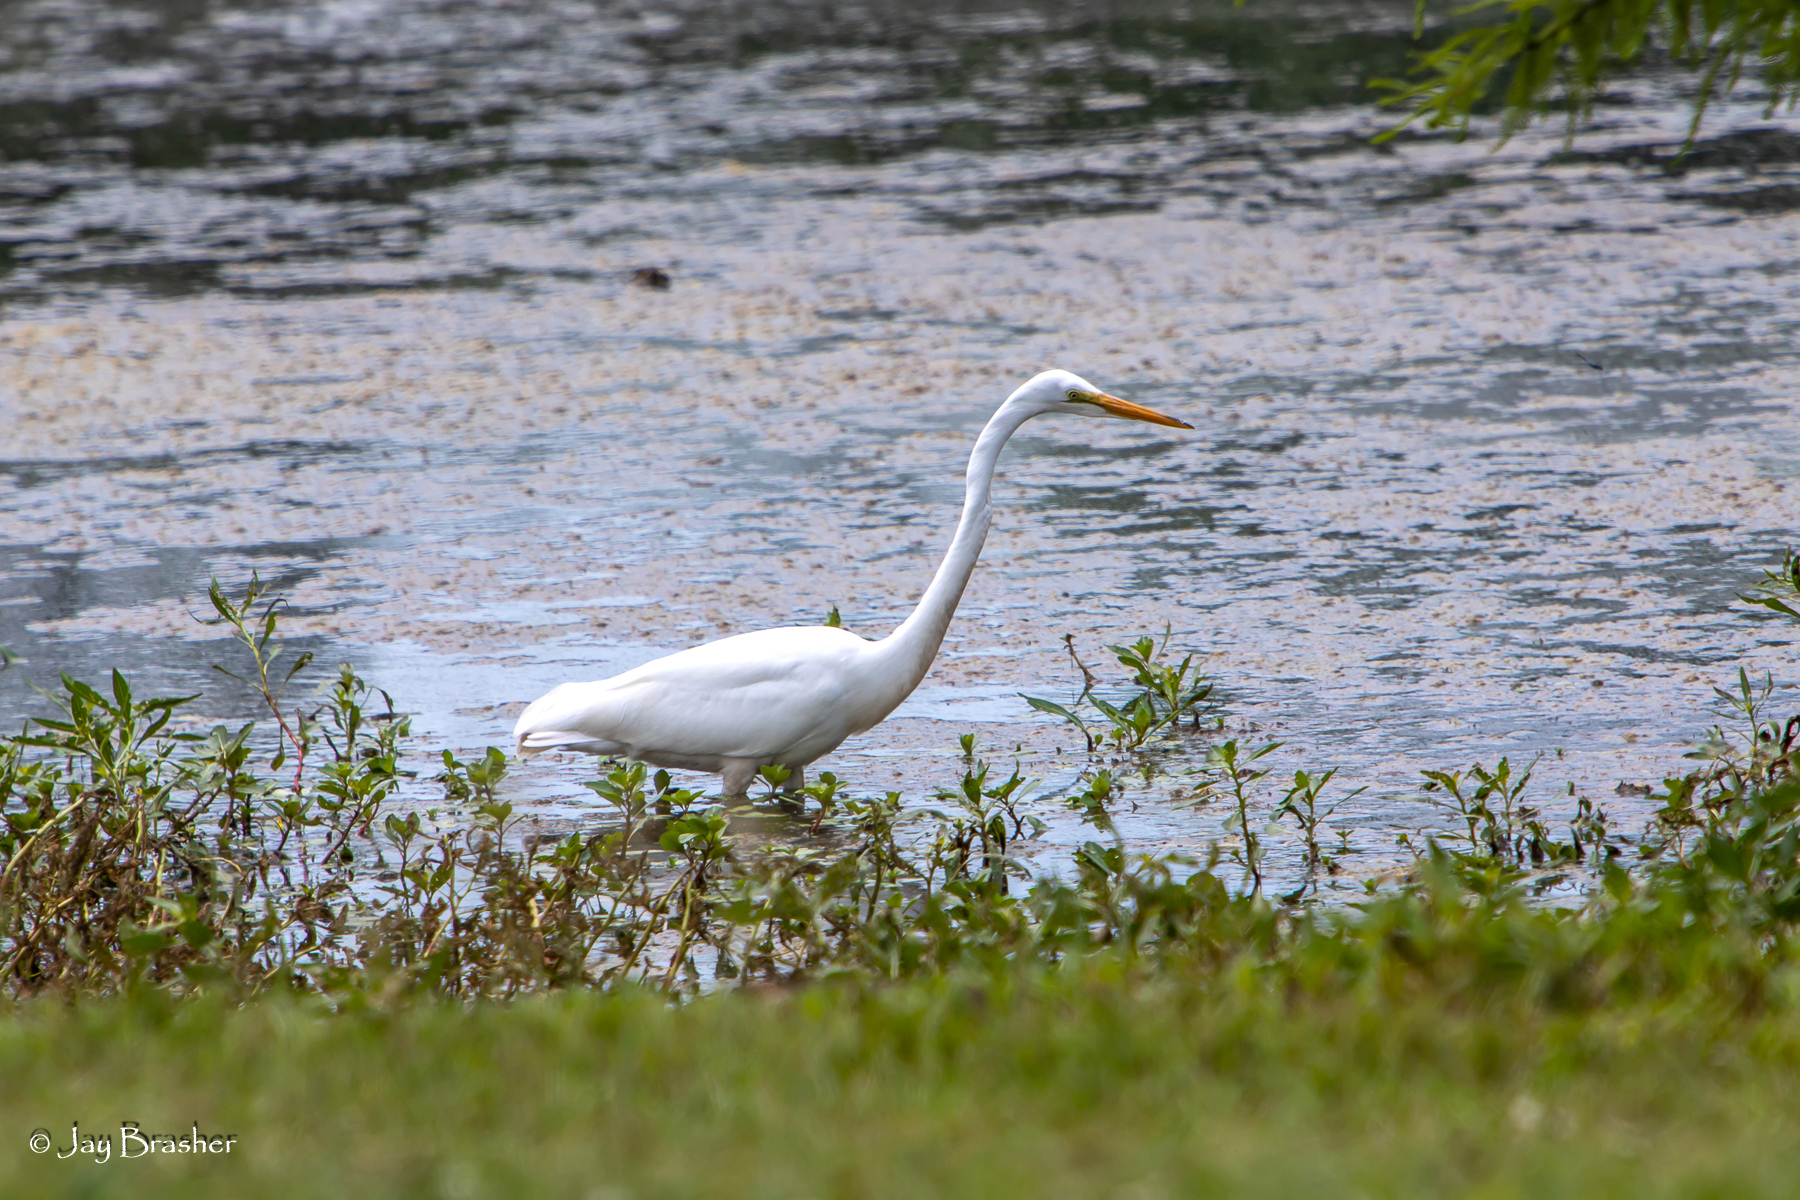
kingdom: Animalia
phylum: Chordata
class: Aves
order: Pelecaniformes
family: Ardeidae
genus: Ardea
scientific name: Ardea alba
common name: Great egret
